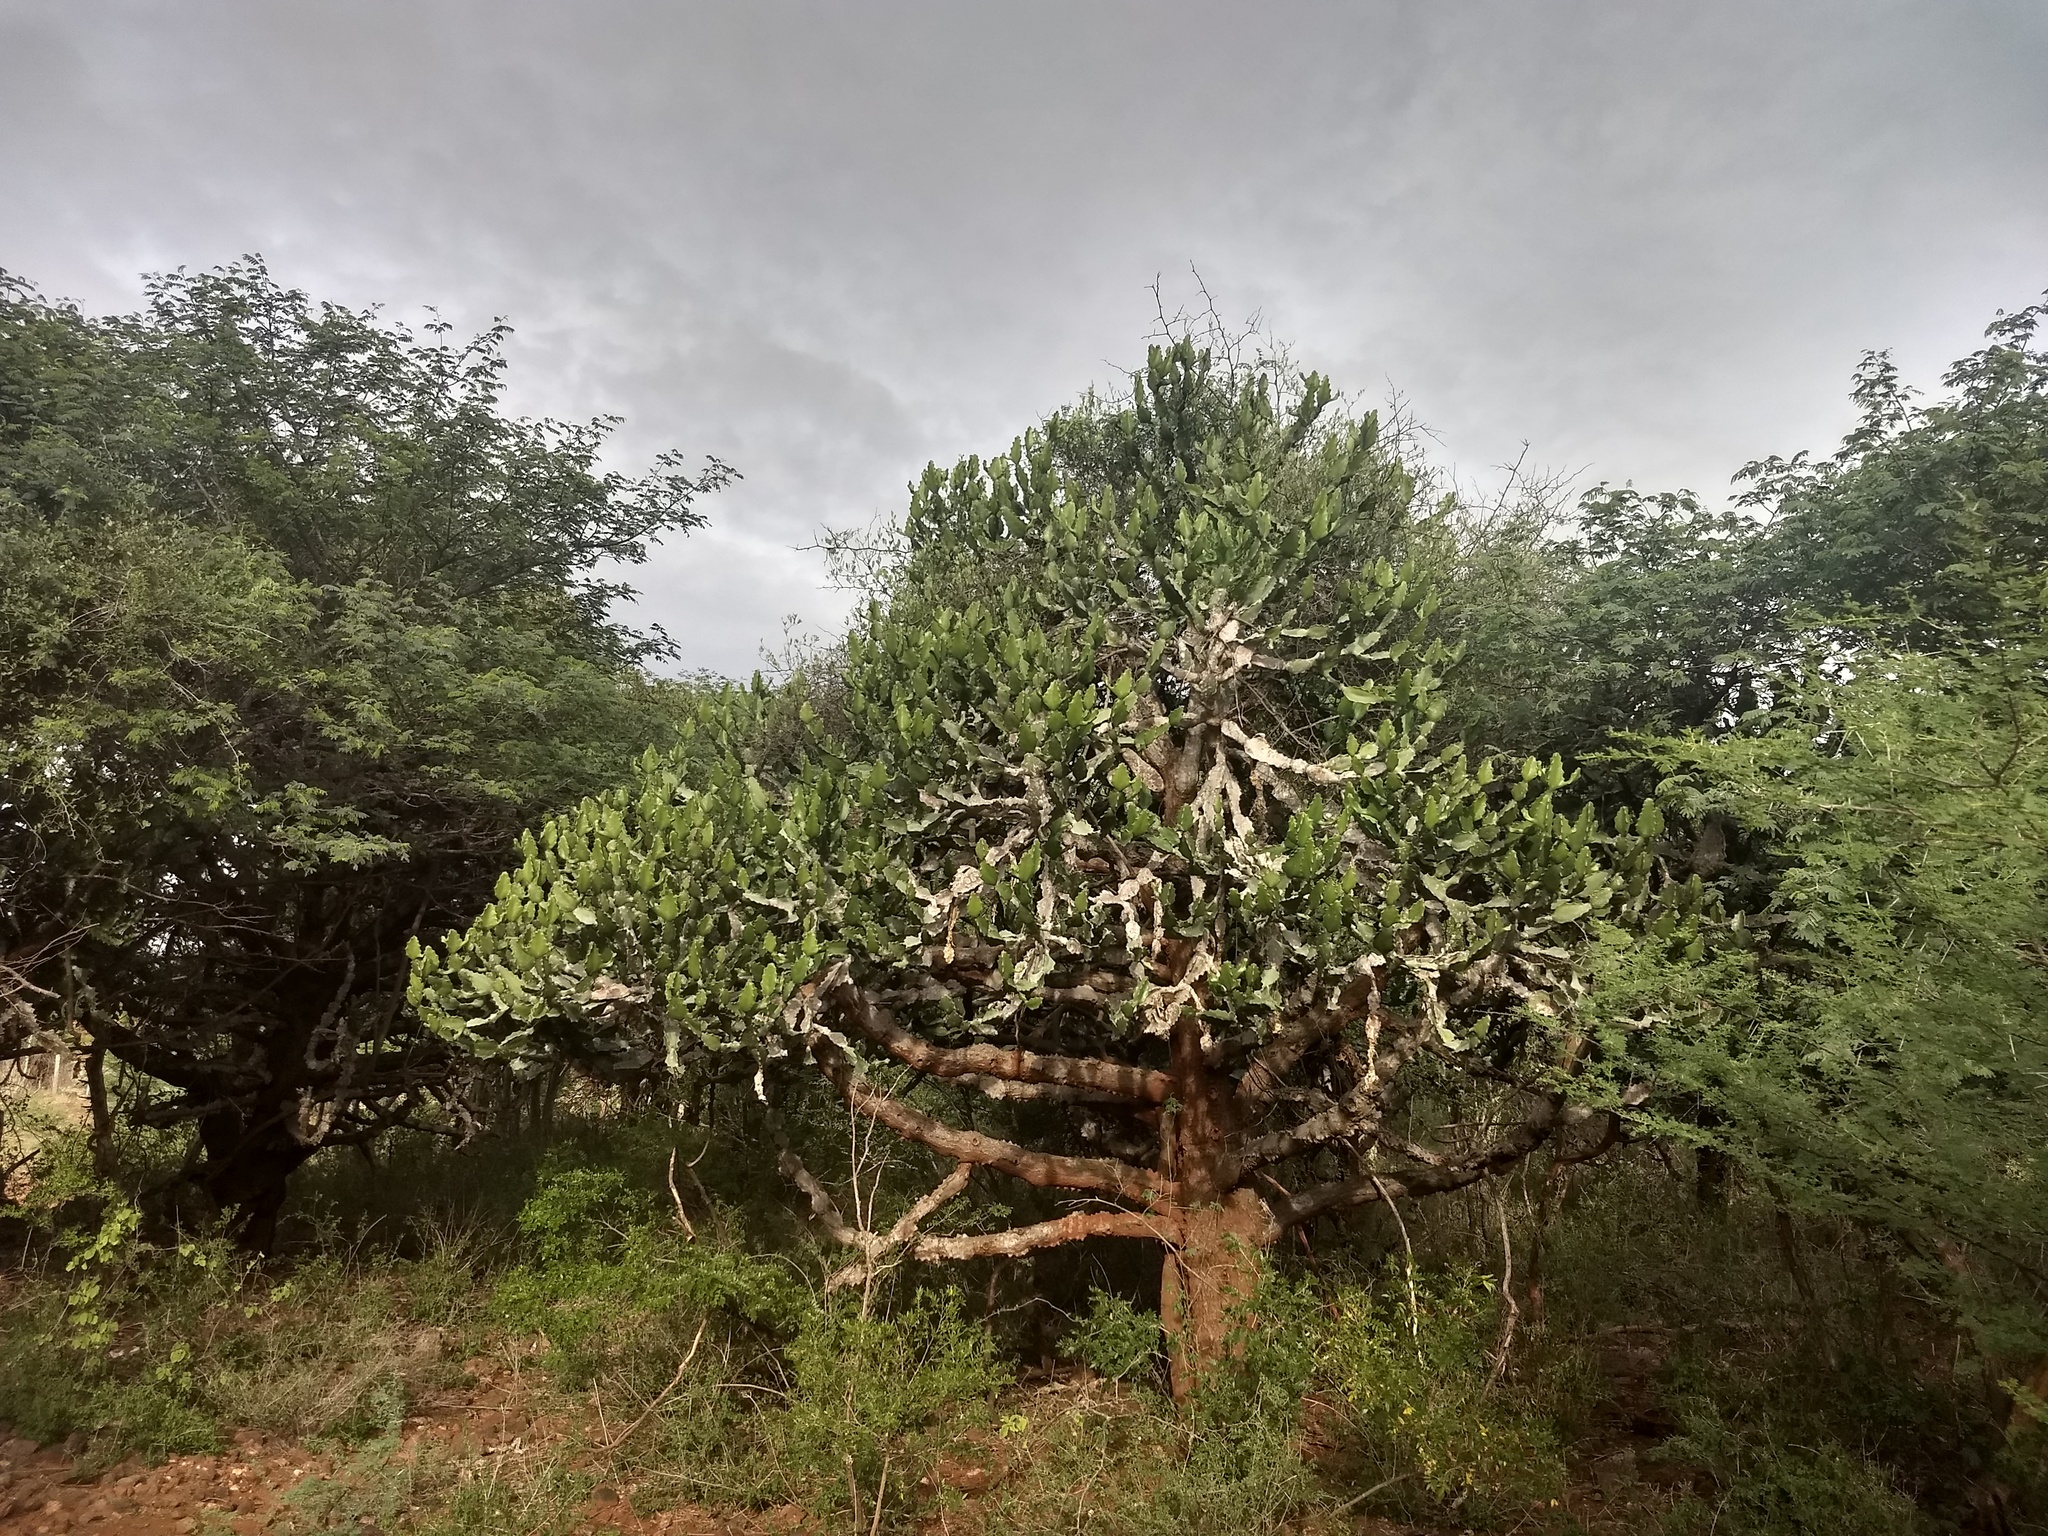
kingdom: Plantae
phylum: Tracheophyta
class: Magnoliopsida
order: Malpighiales
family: Euphorbiaceae
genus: Euphorbia
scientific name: Euphorbia antiquorum
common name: Malayan spurge tree
